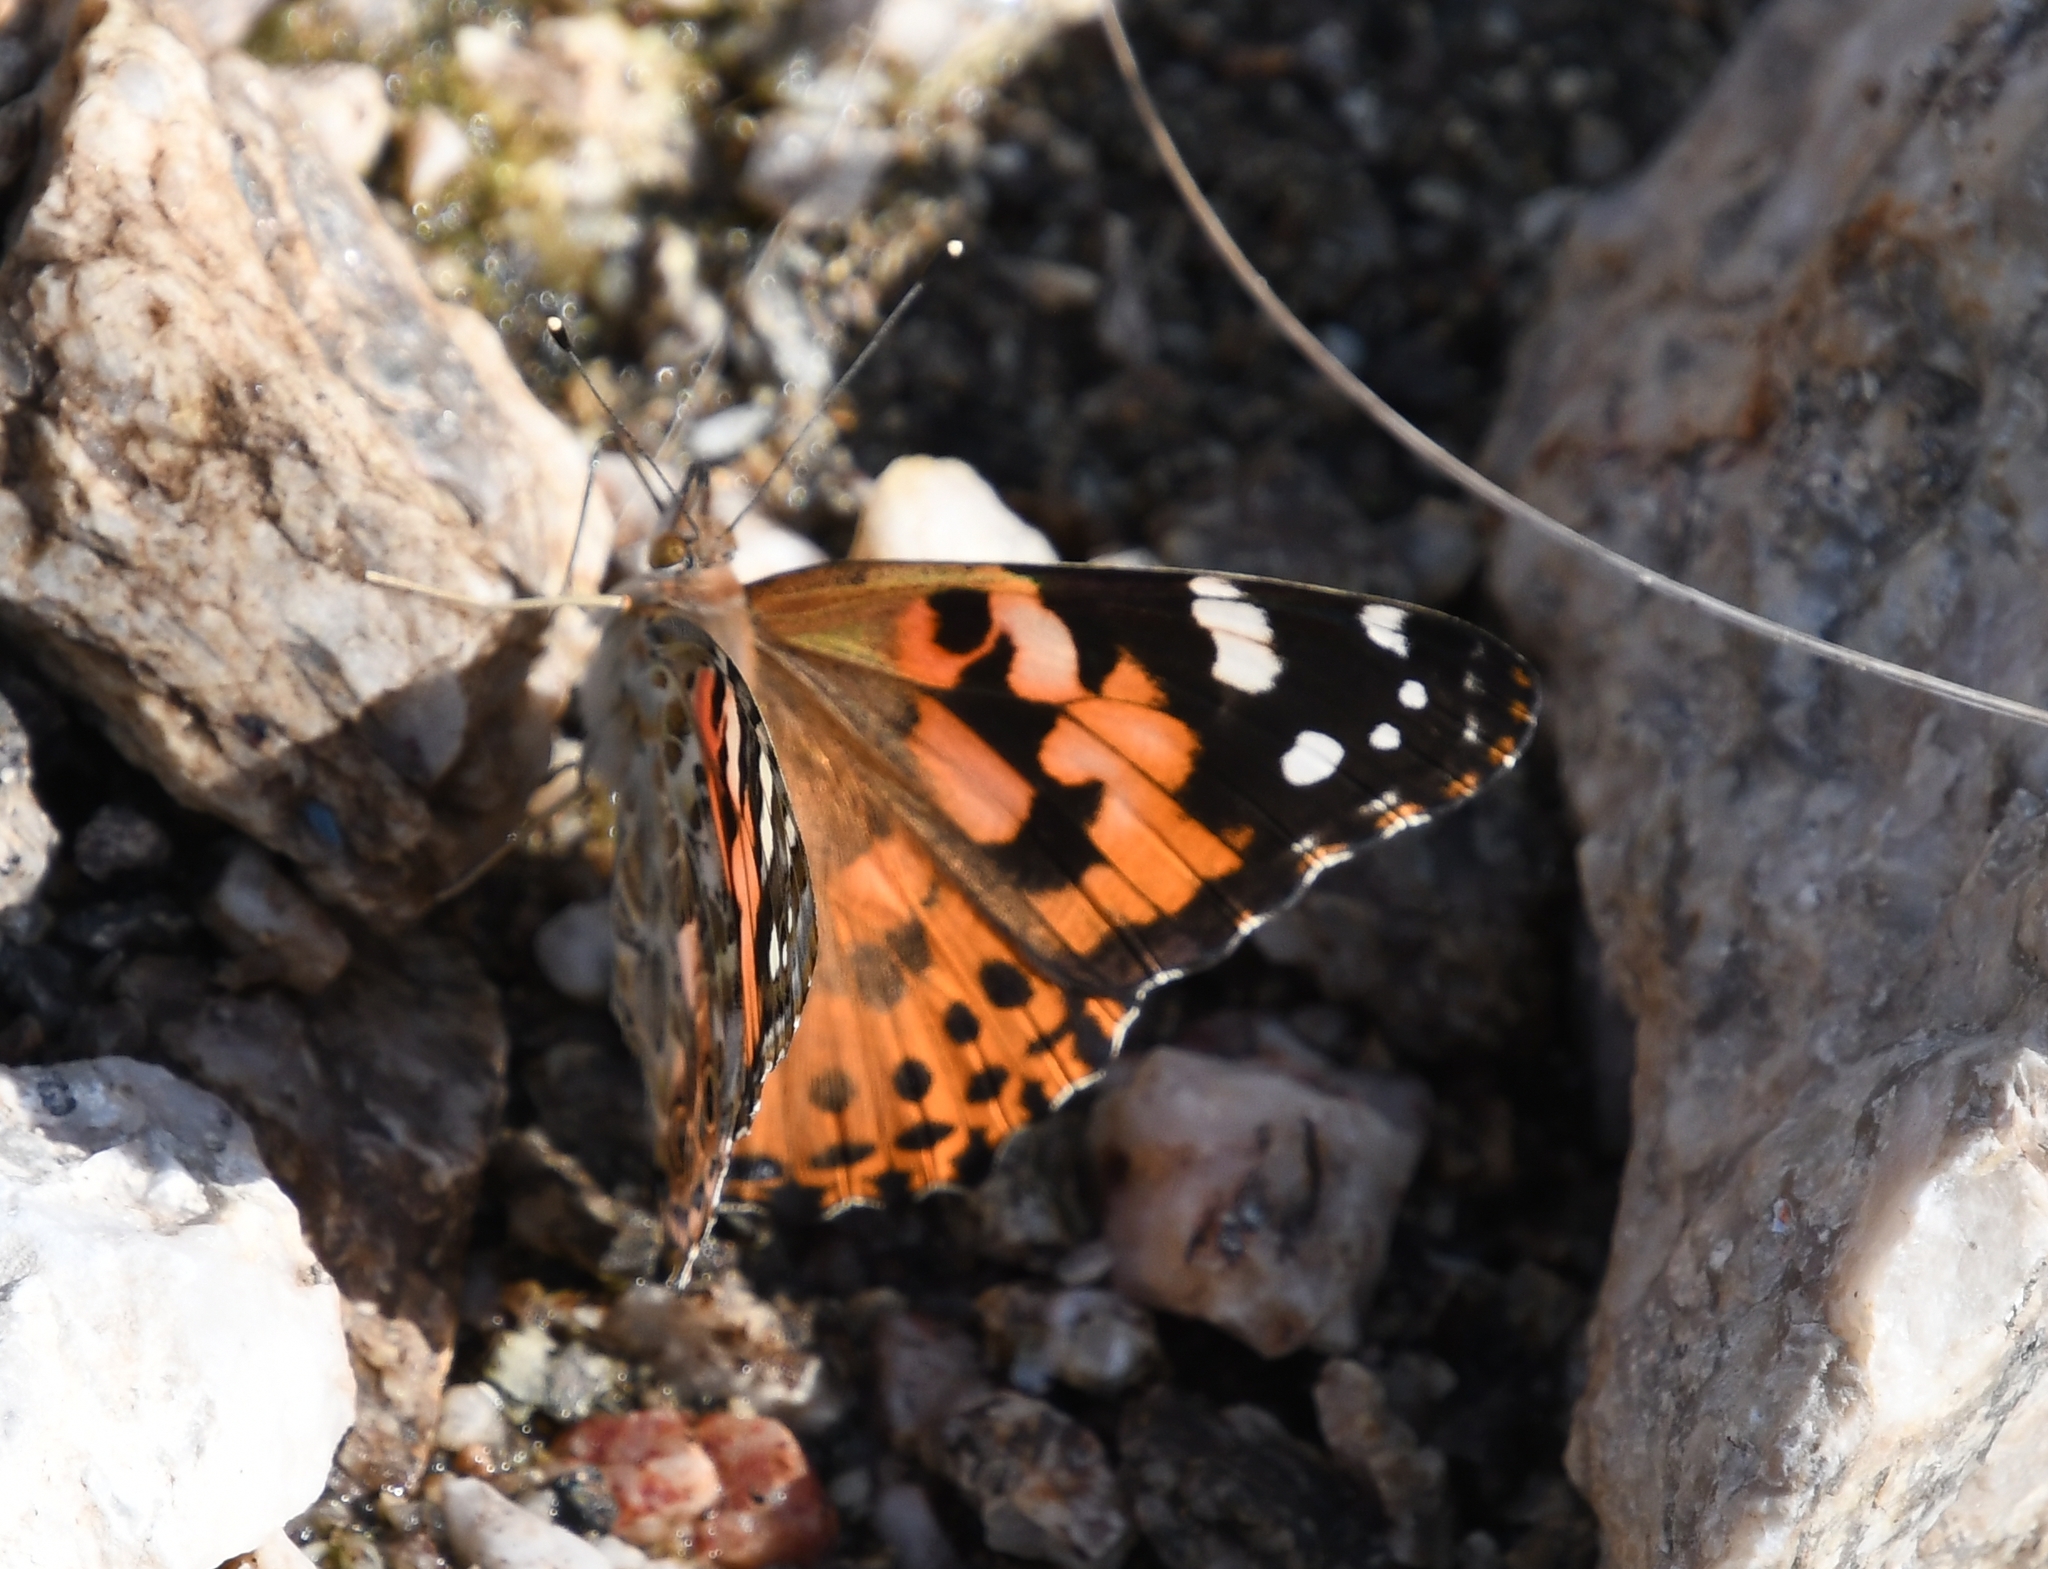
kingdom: Animalia
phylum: Arthropoda
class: Insecta
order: Lepidoptera
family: Nymphalidae
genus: Vanessa
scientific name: Vanessa cardui
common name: Painted lady
